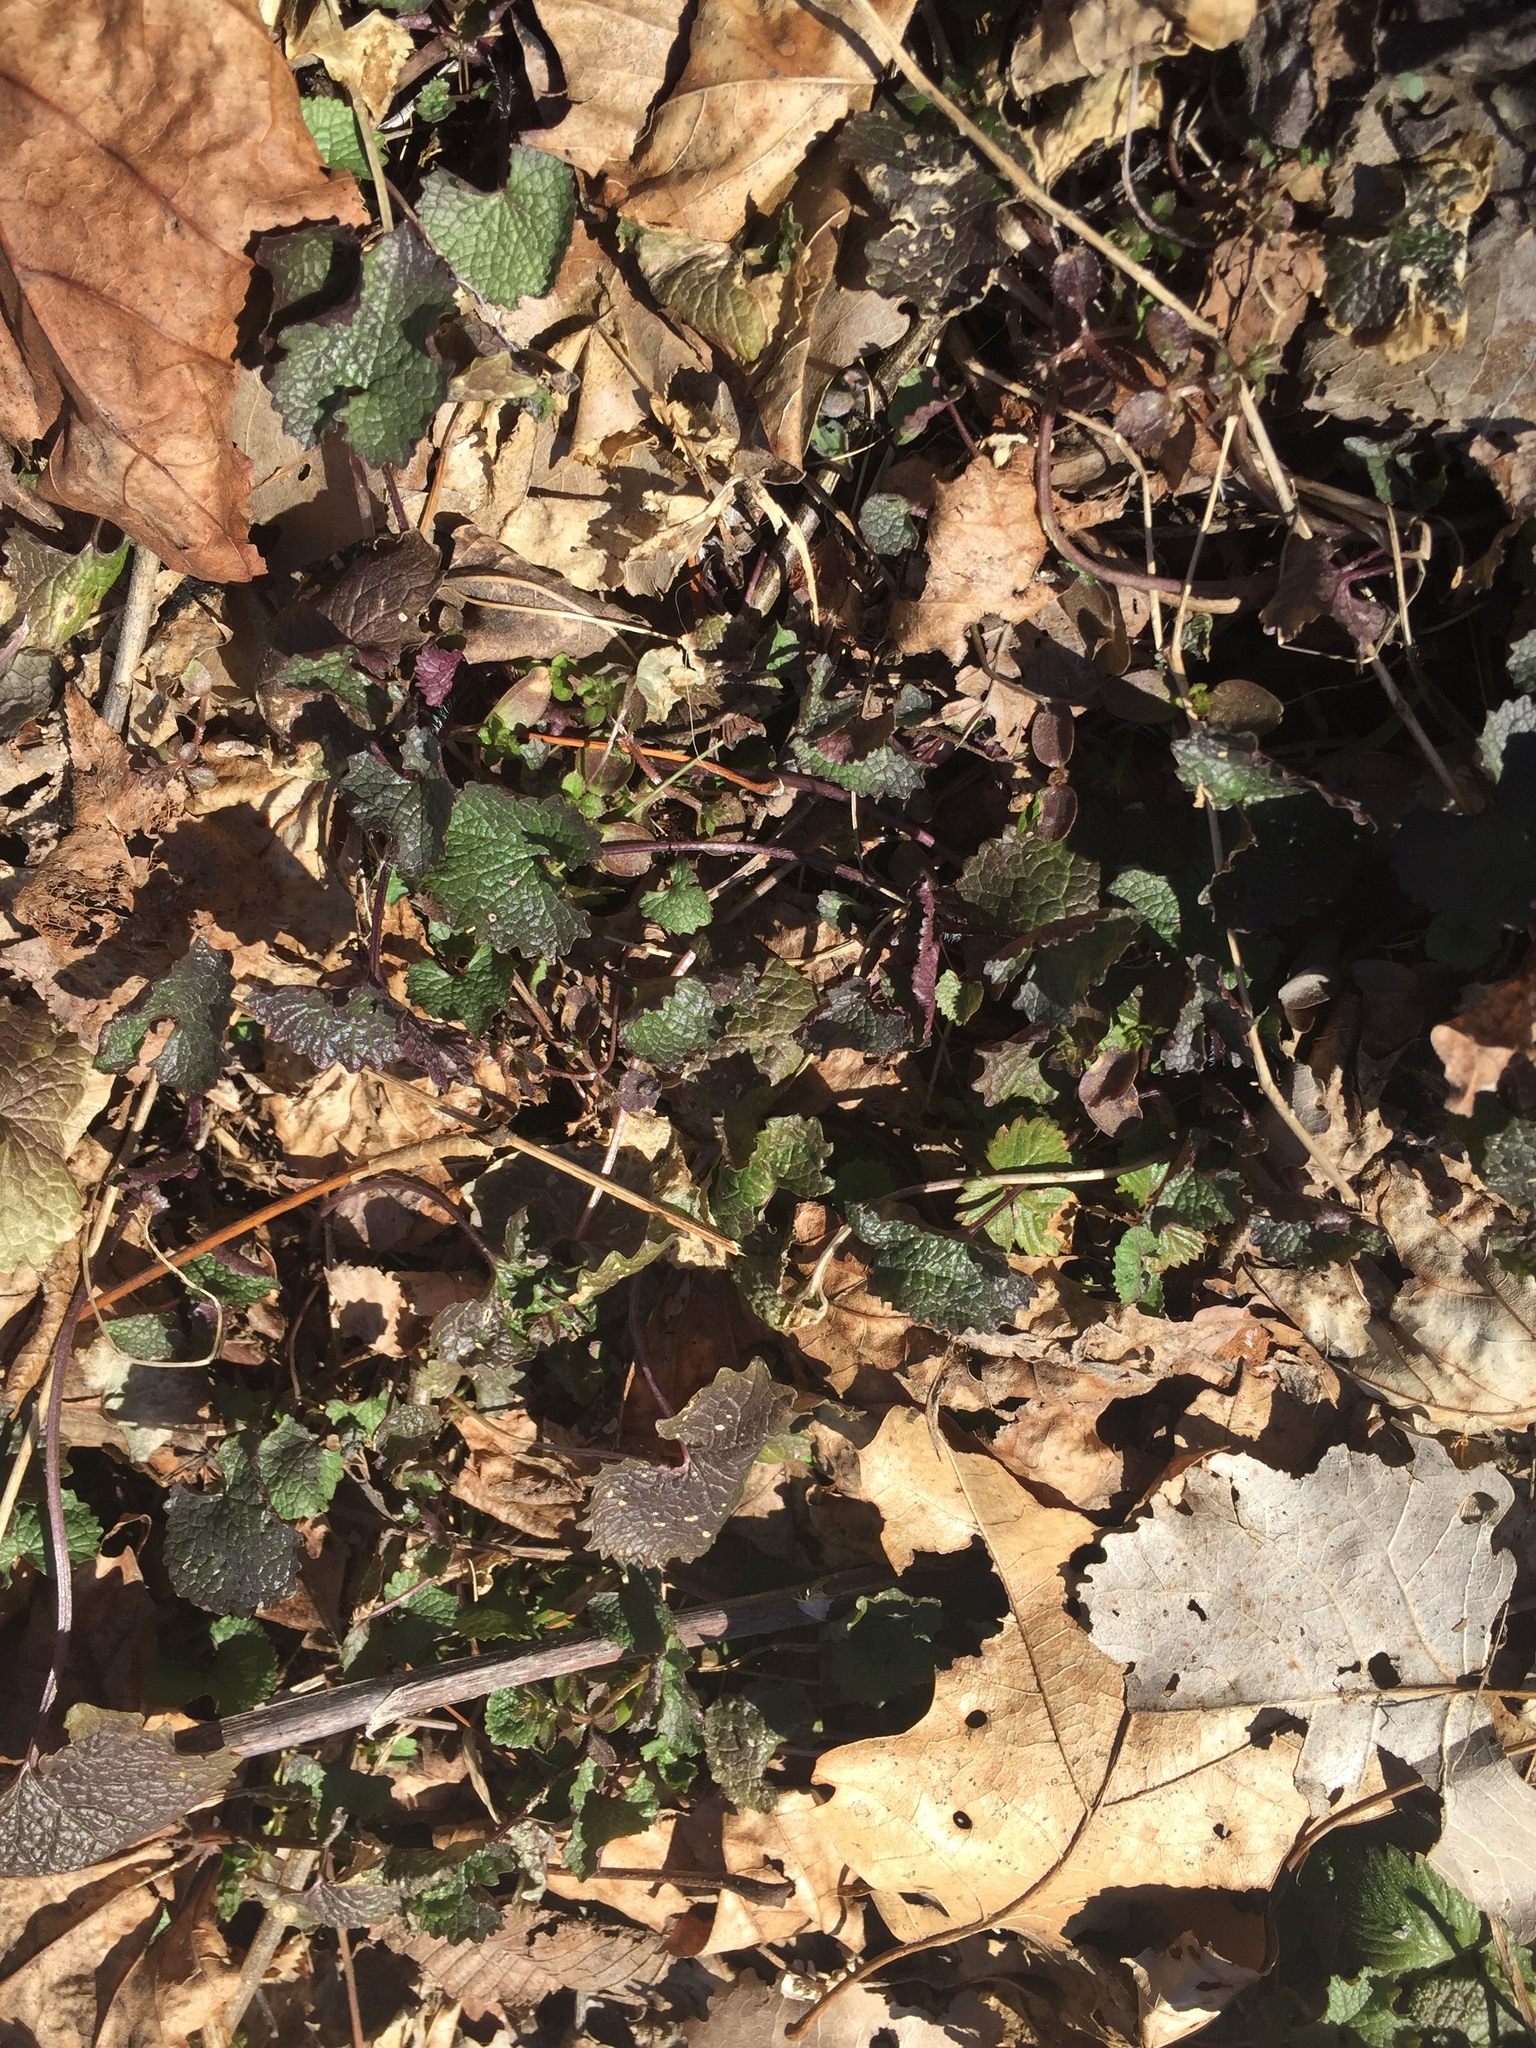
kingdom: Plantae
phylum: Tracheophyta
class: Magnoliopsida
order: Brassicales
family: Brassicaceae
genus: Alliaria
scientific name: Alliaria petiolata
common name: Garlic mustard
